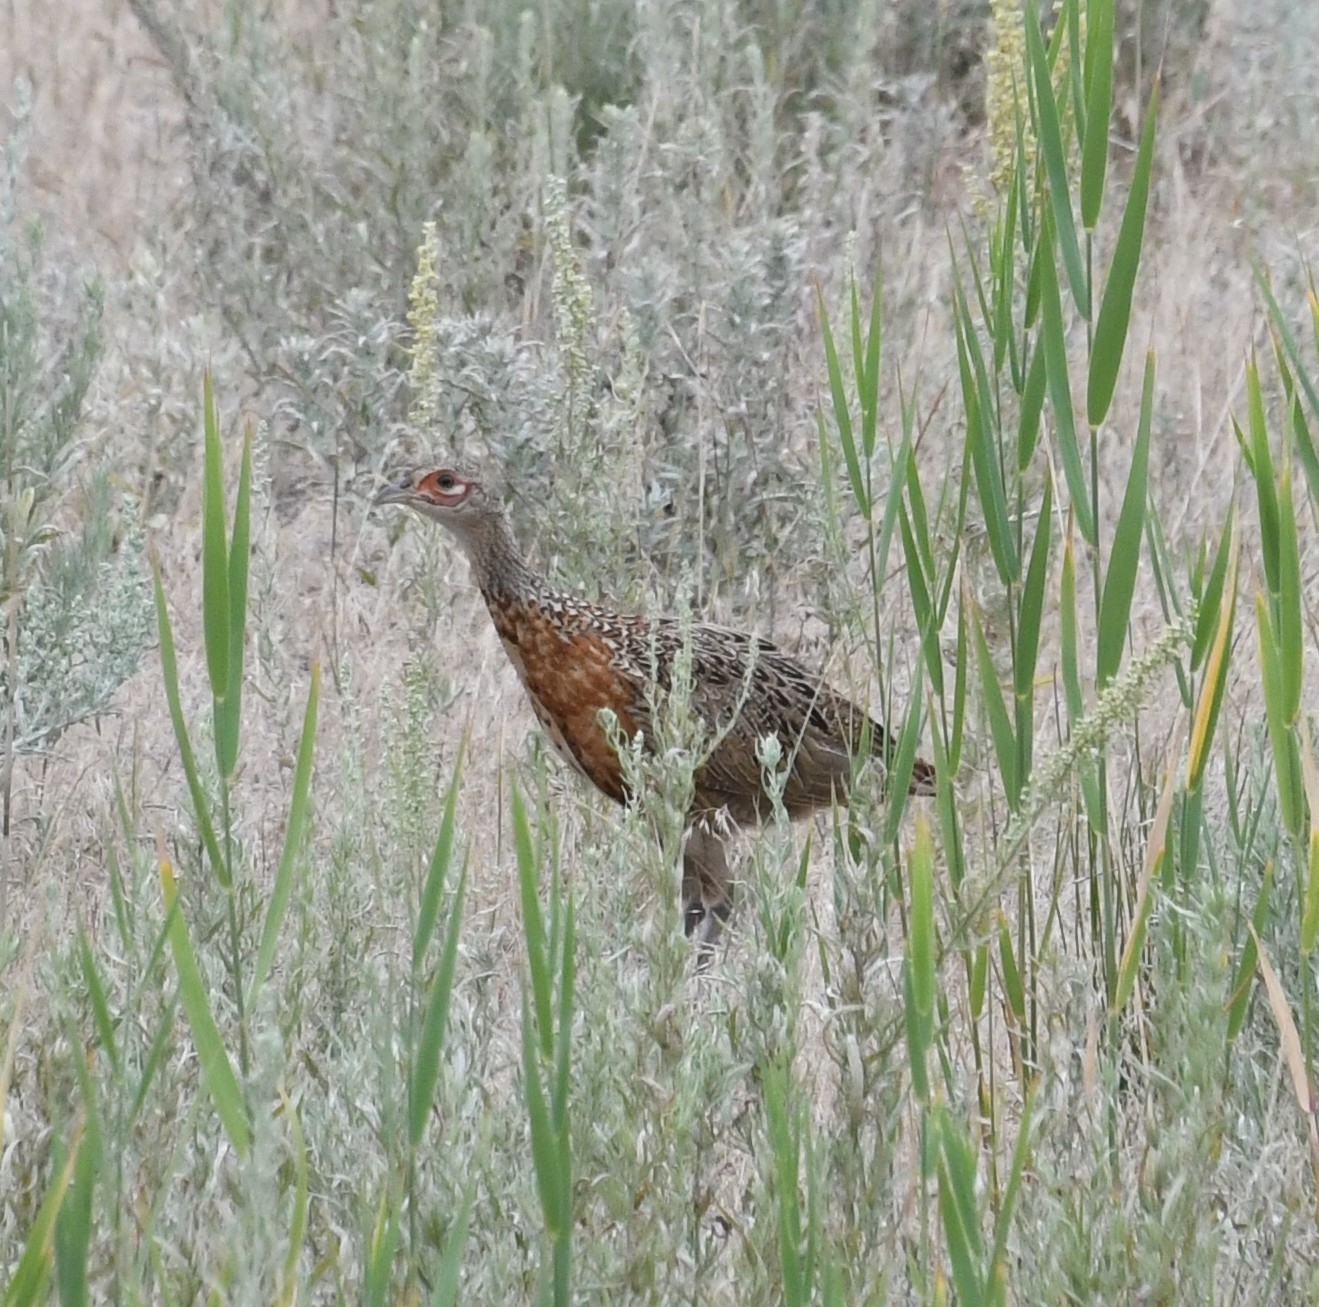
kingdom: Animalia
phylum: Chordata
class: Aves
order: Galliformes
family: Phasianidae
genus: Phasianus
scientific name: Phasianus colchicus
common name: Common pheasant
